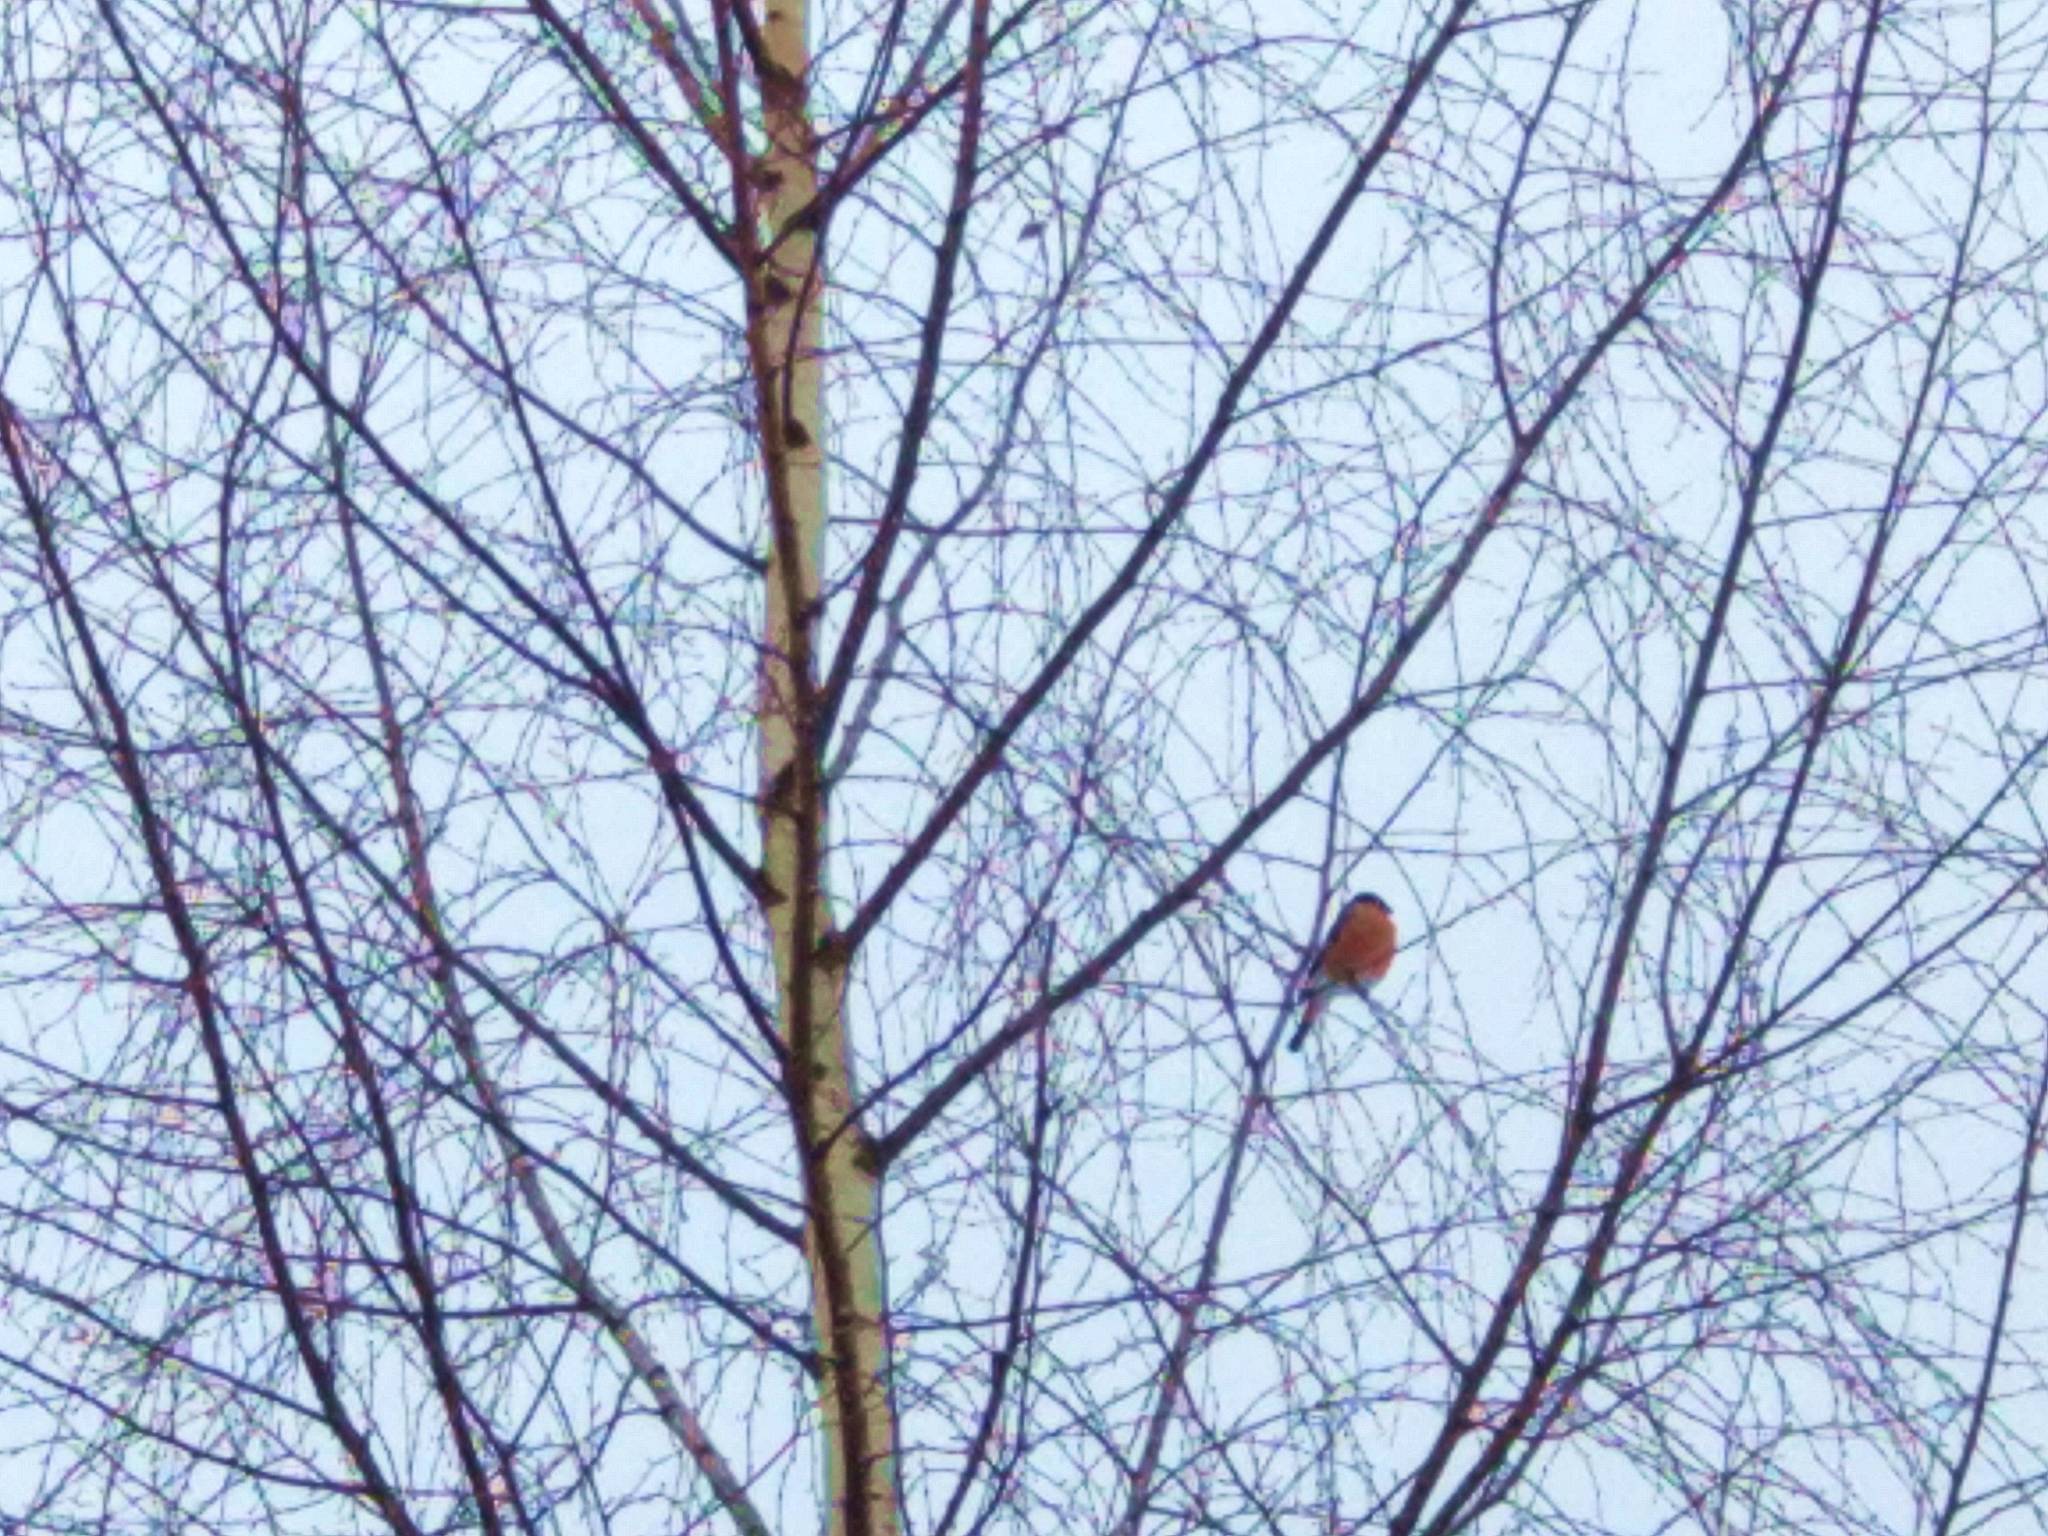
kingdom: Animalia
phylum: Chordata
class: Aves
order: Passeriformes
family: Fringillidae
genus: Pyrrhula
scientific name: Pyrrhula pyrrhula
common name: Eurasian bullfinch
